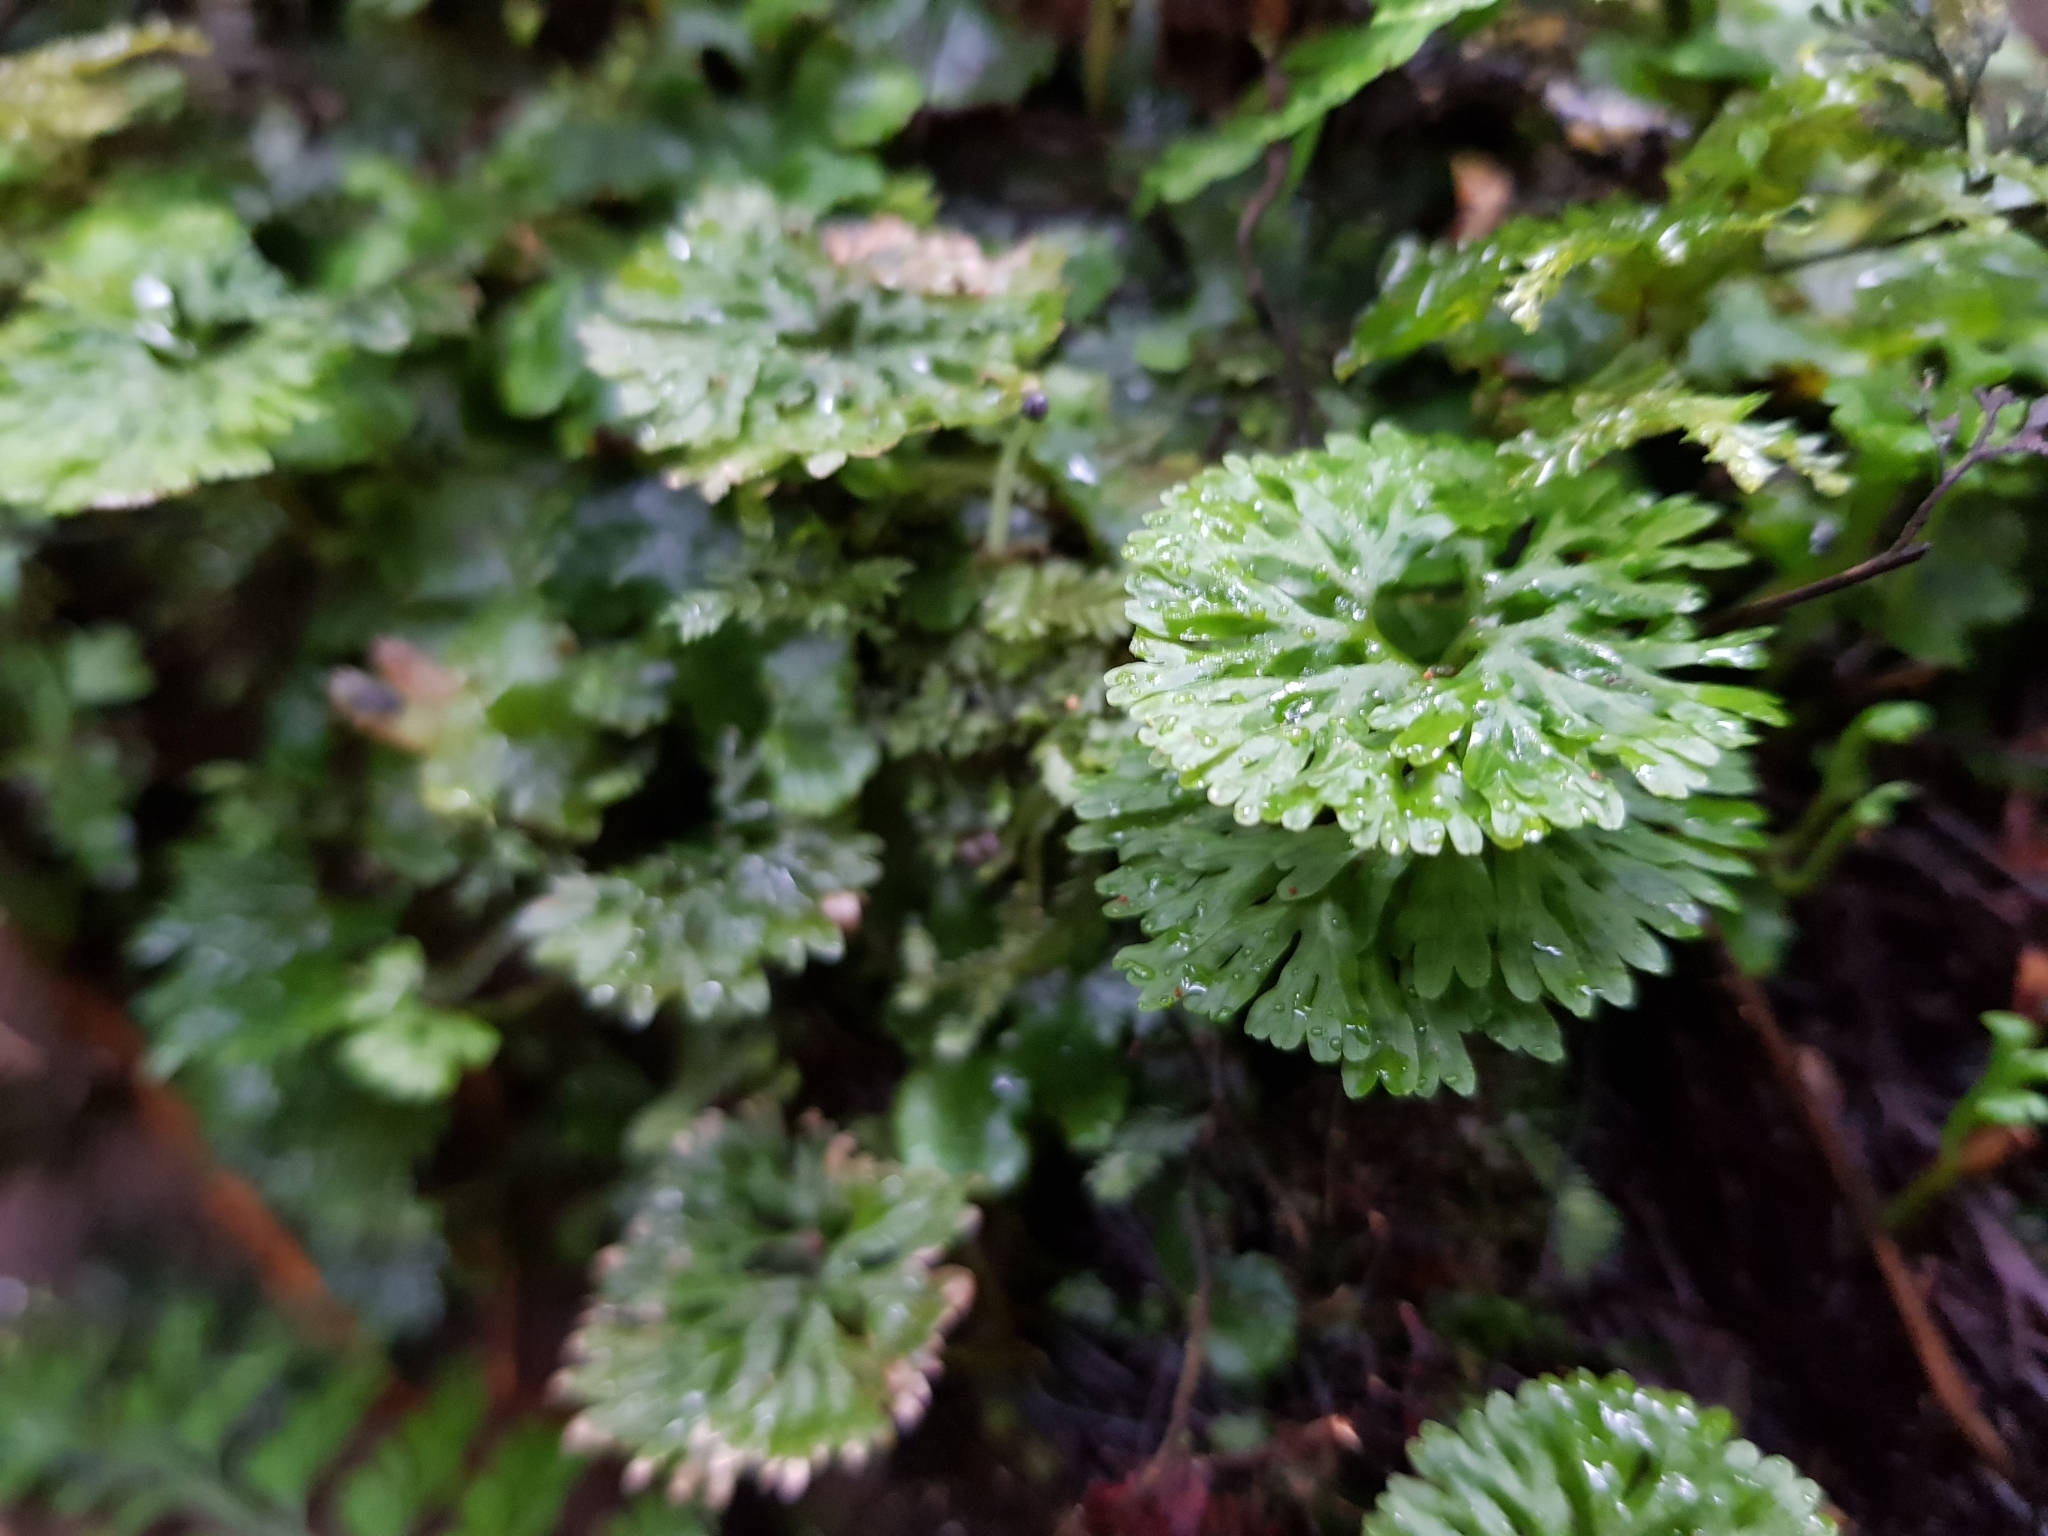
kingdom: Plantae
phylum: Marchantiophyta
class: Jungermanniopsida
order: Pallaviciniales
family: Hymenophytaceae
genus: Hymenophyton
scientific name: Hymenophyton flabellatum
